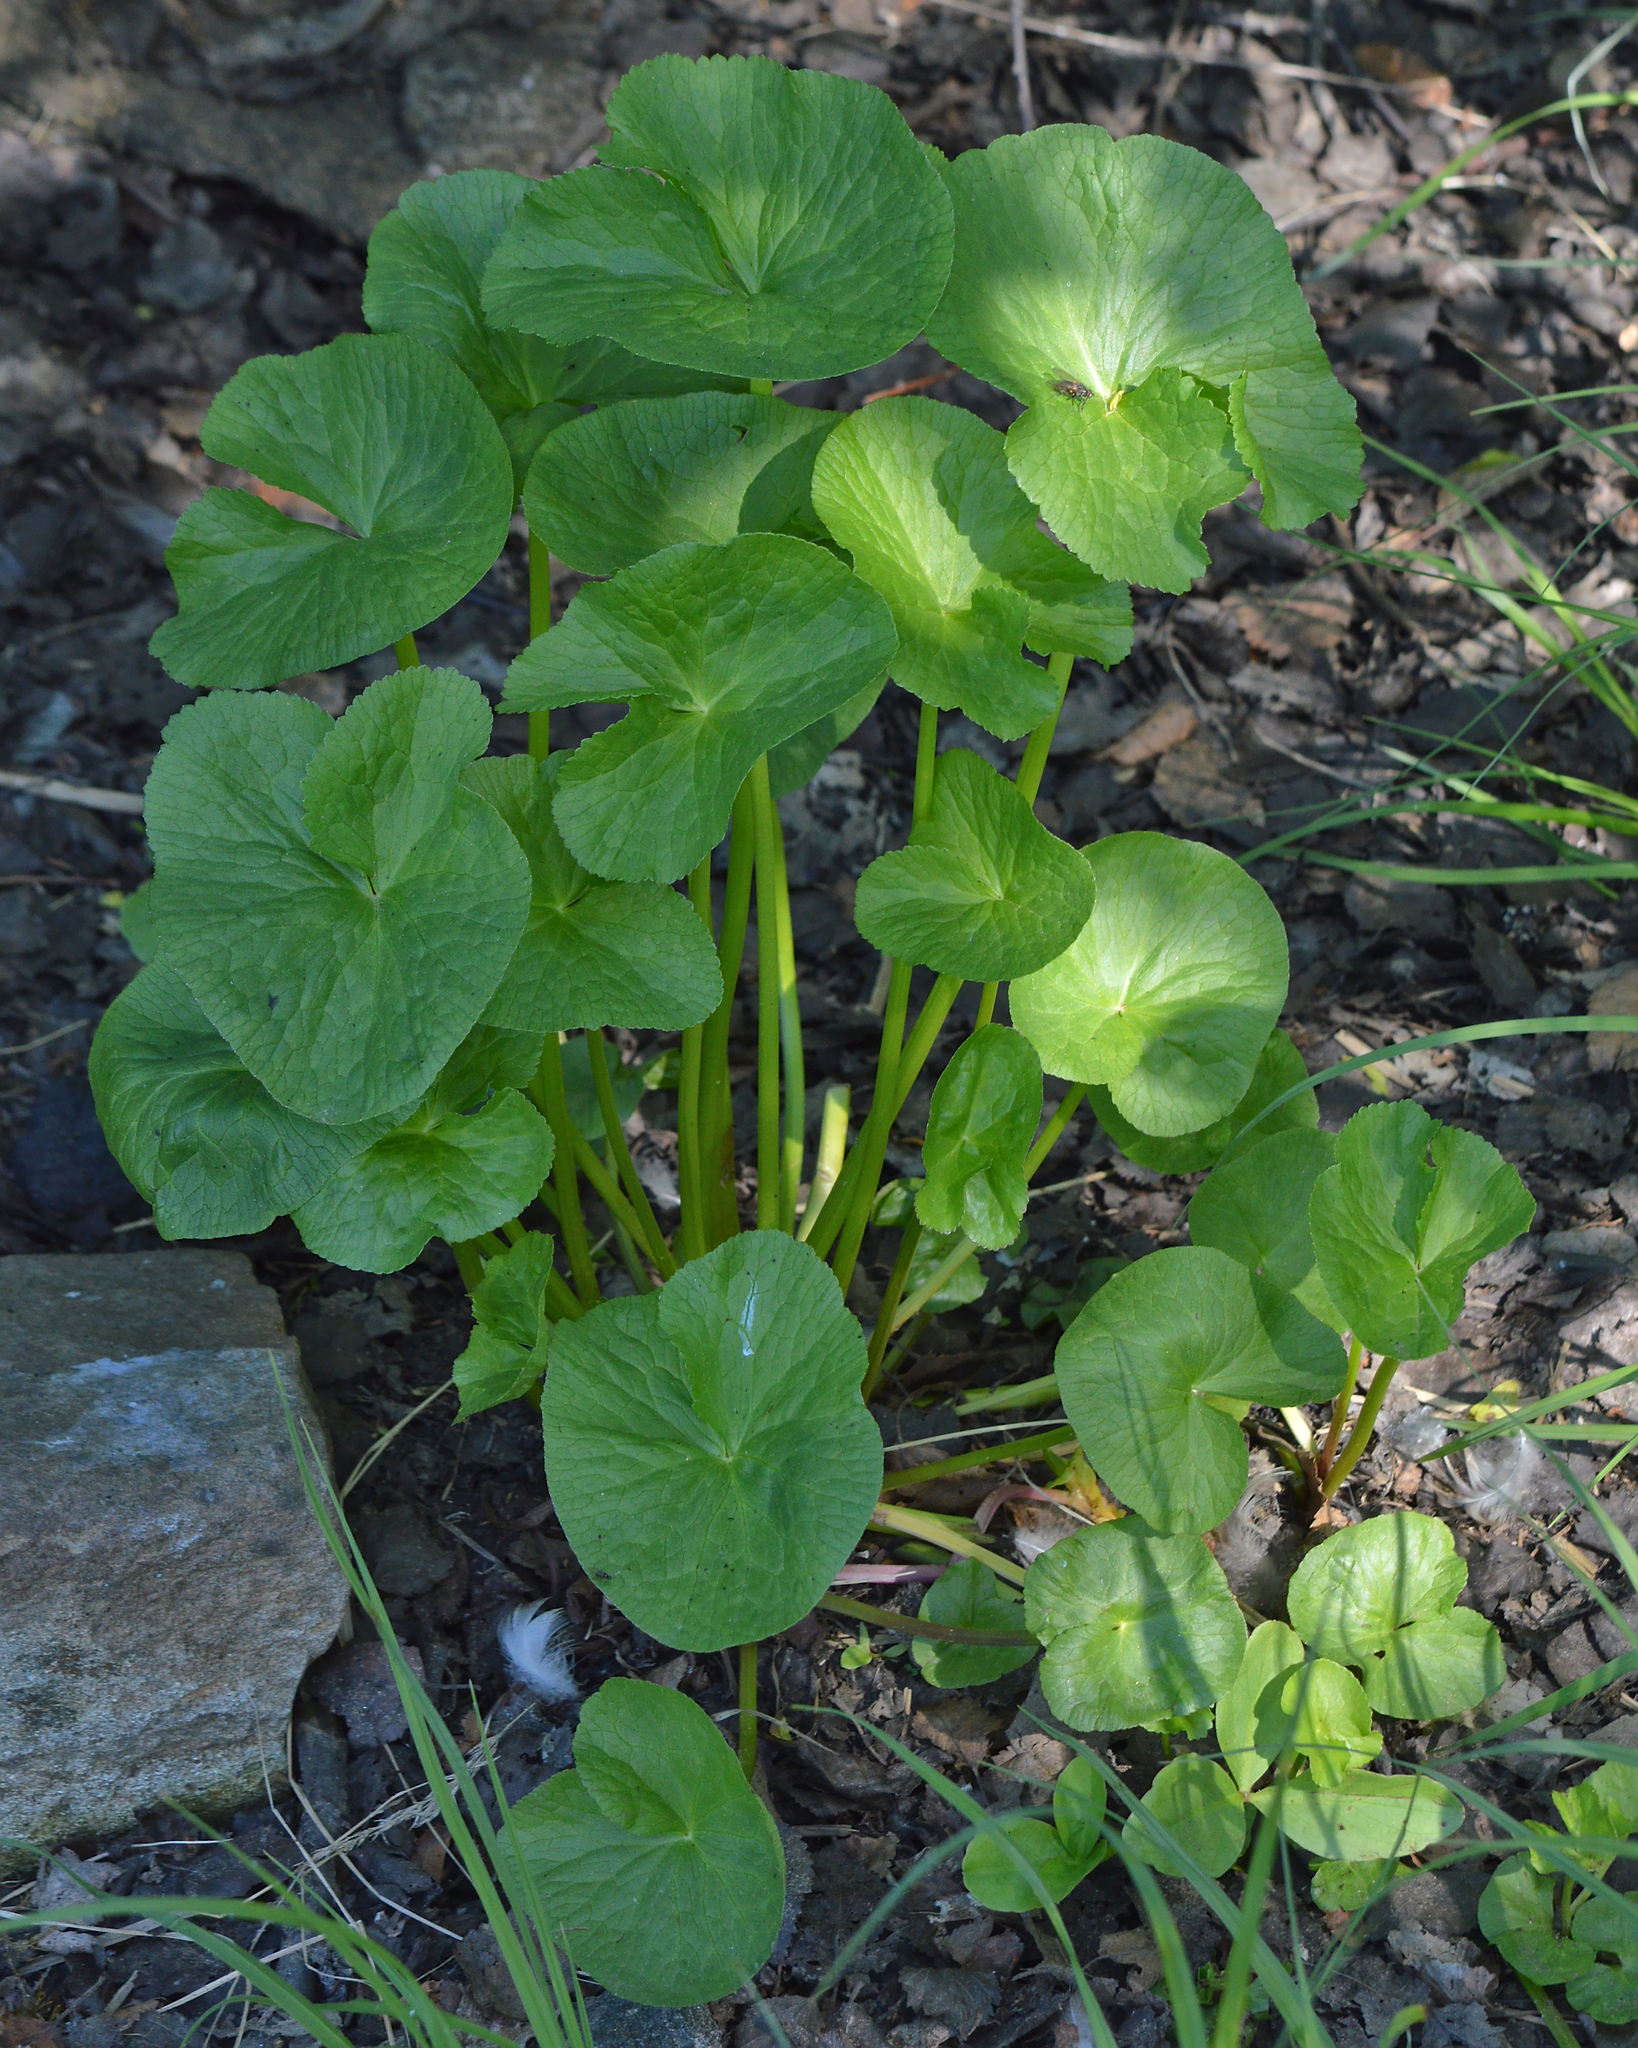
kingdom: Plantae
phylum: Tracheophyta
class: Magnoliopsida
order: Ranunculales
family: Ranunculaceae
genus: Caltha
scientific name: Caltha palustris
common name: Marsh marigold
